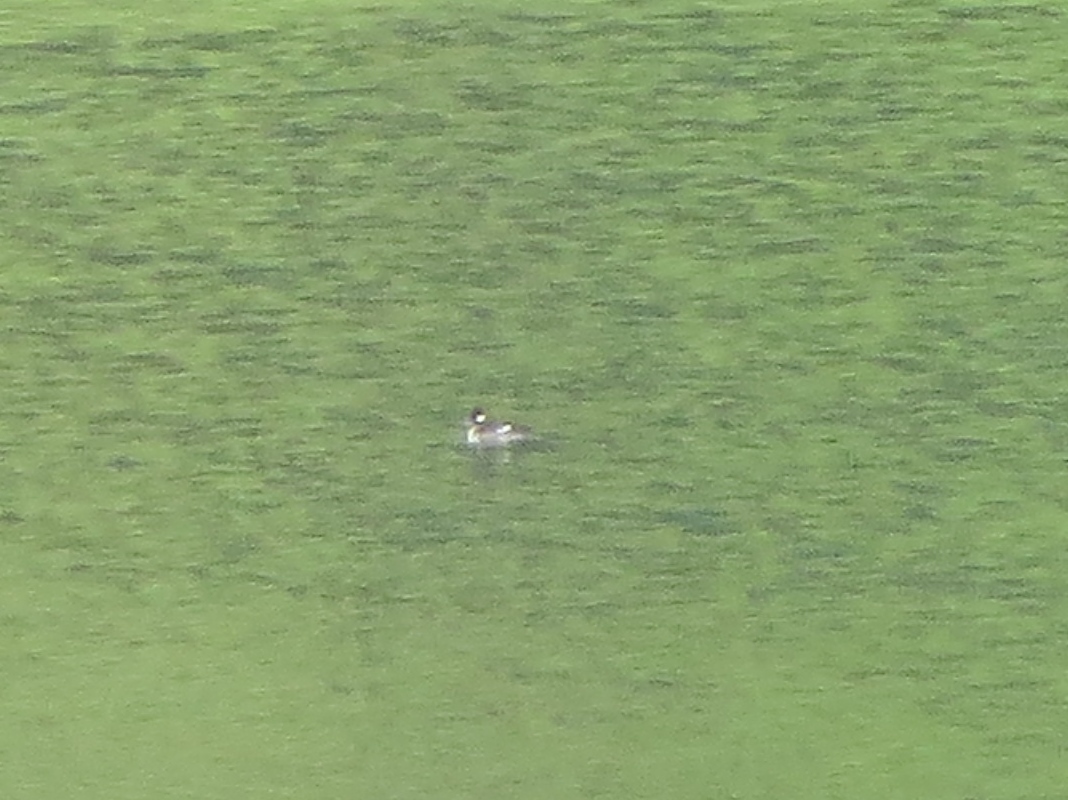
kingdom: Animalia
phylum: Chordata
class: Aves
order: Anseriformes
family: Anatidae
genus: Bucephala
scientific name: Bucephala albeola
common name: Bufflehead
